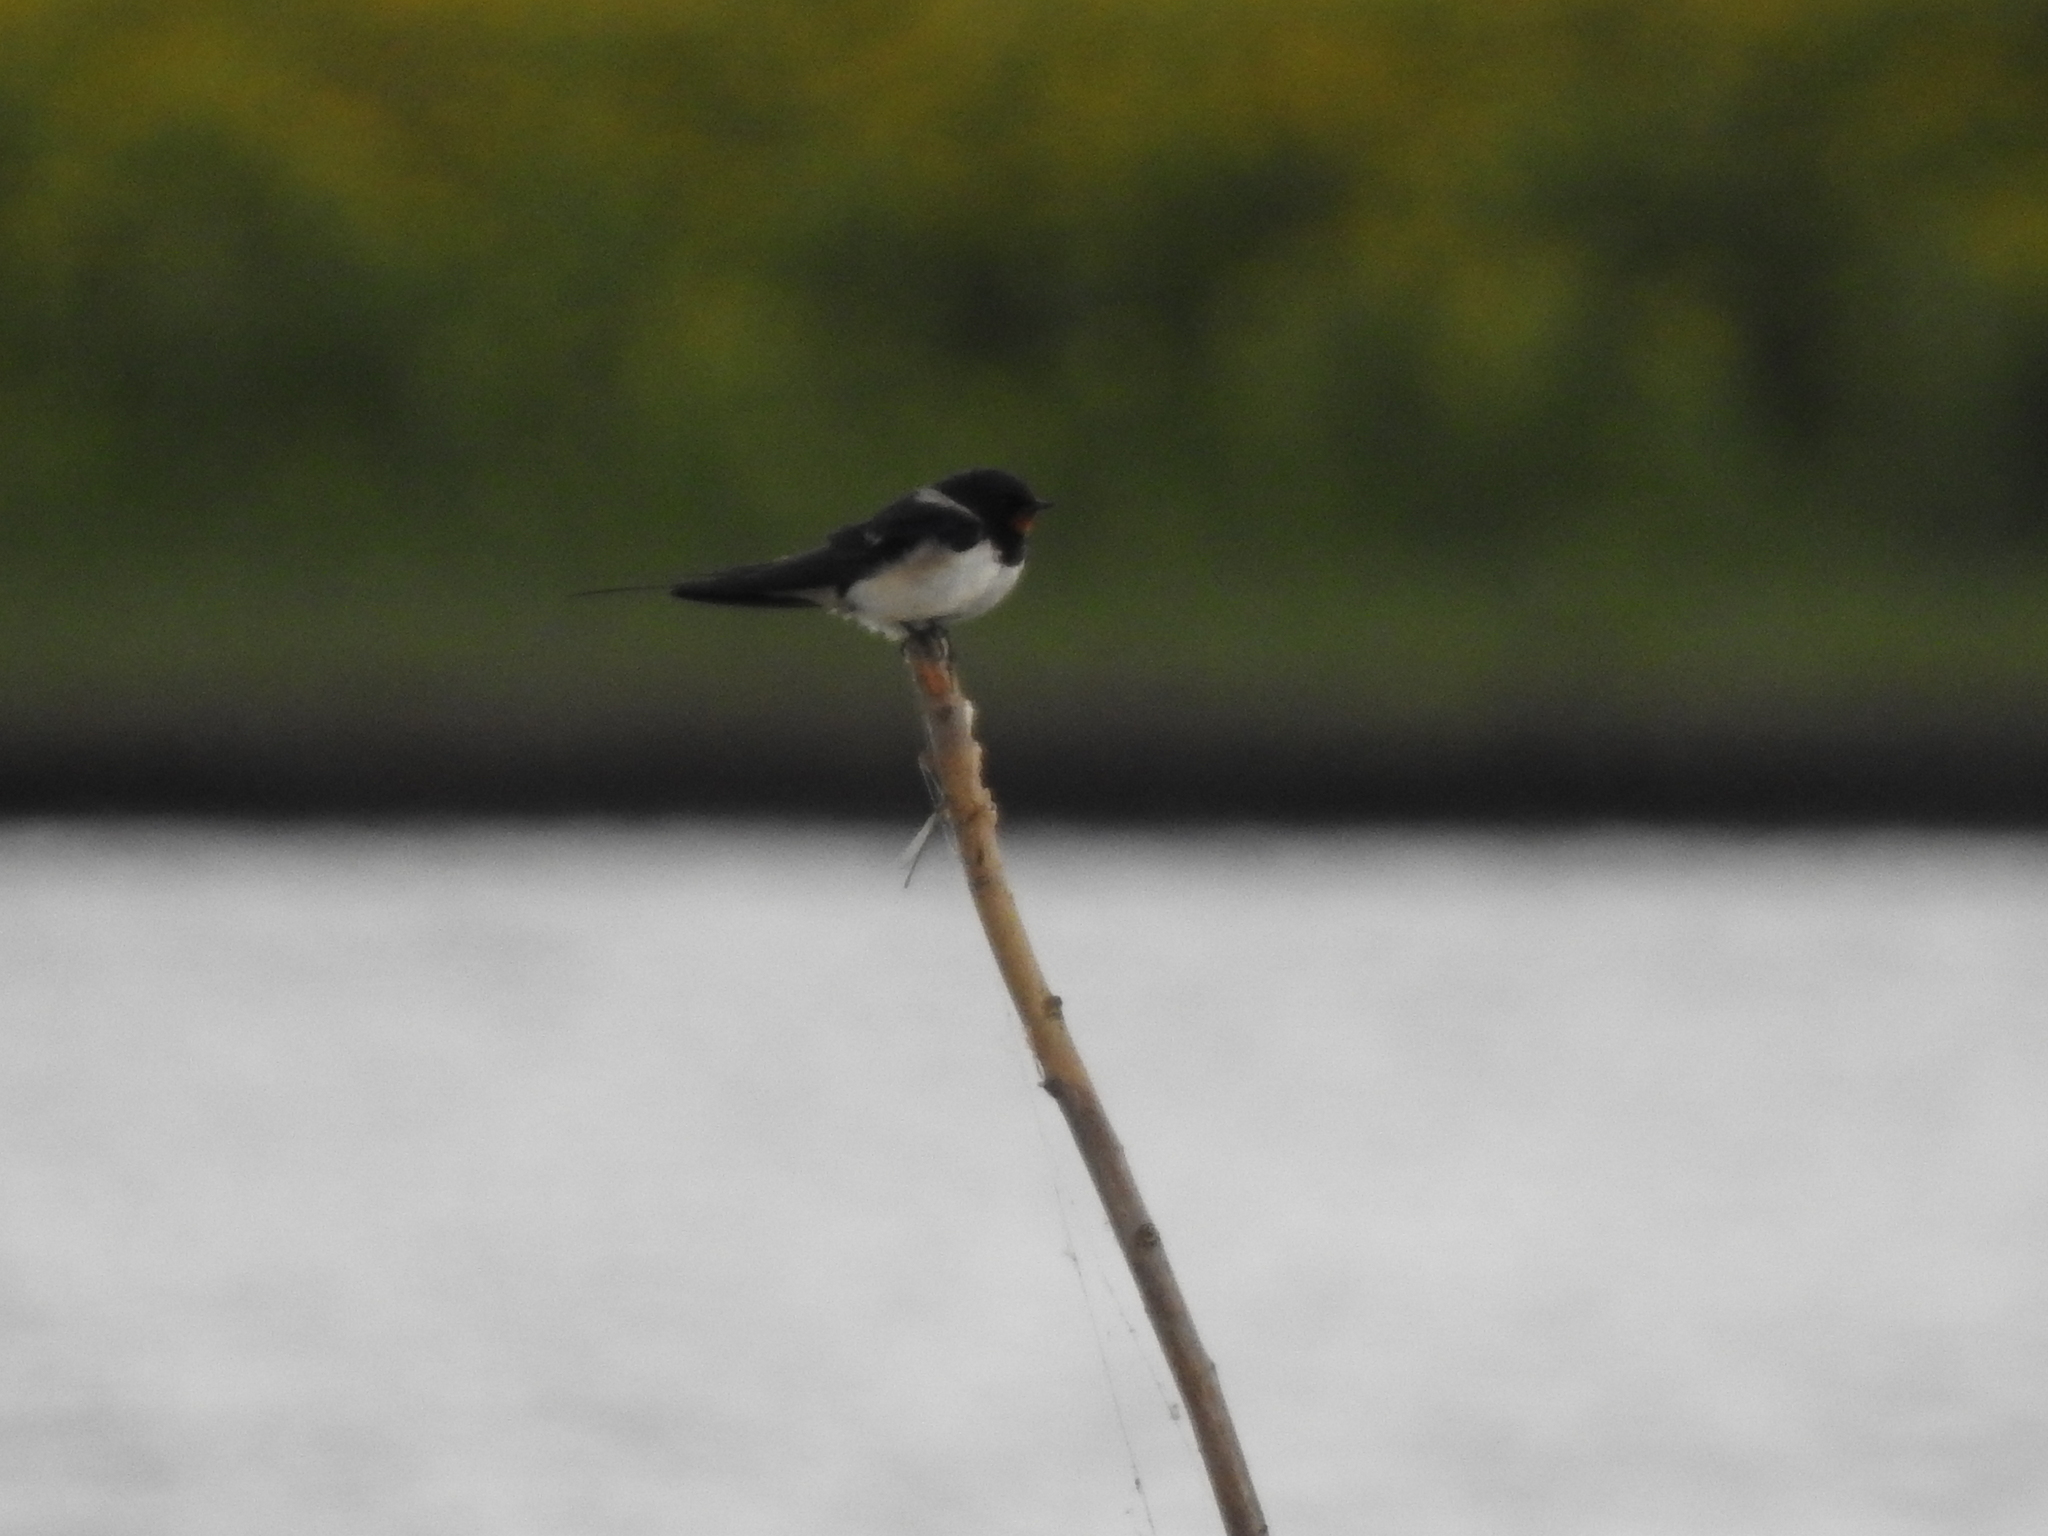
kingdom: Animalia
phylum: Chordata
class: Aves
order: Passeriformes
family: Hirundinidae
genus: Hirundo
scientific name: Hirundo rustica
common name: Barn swallow
